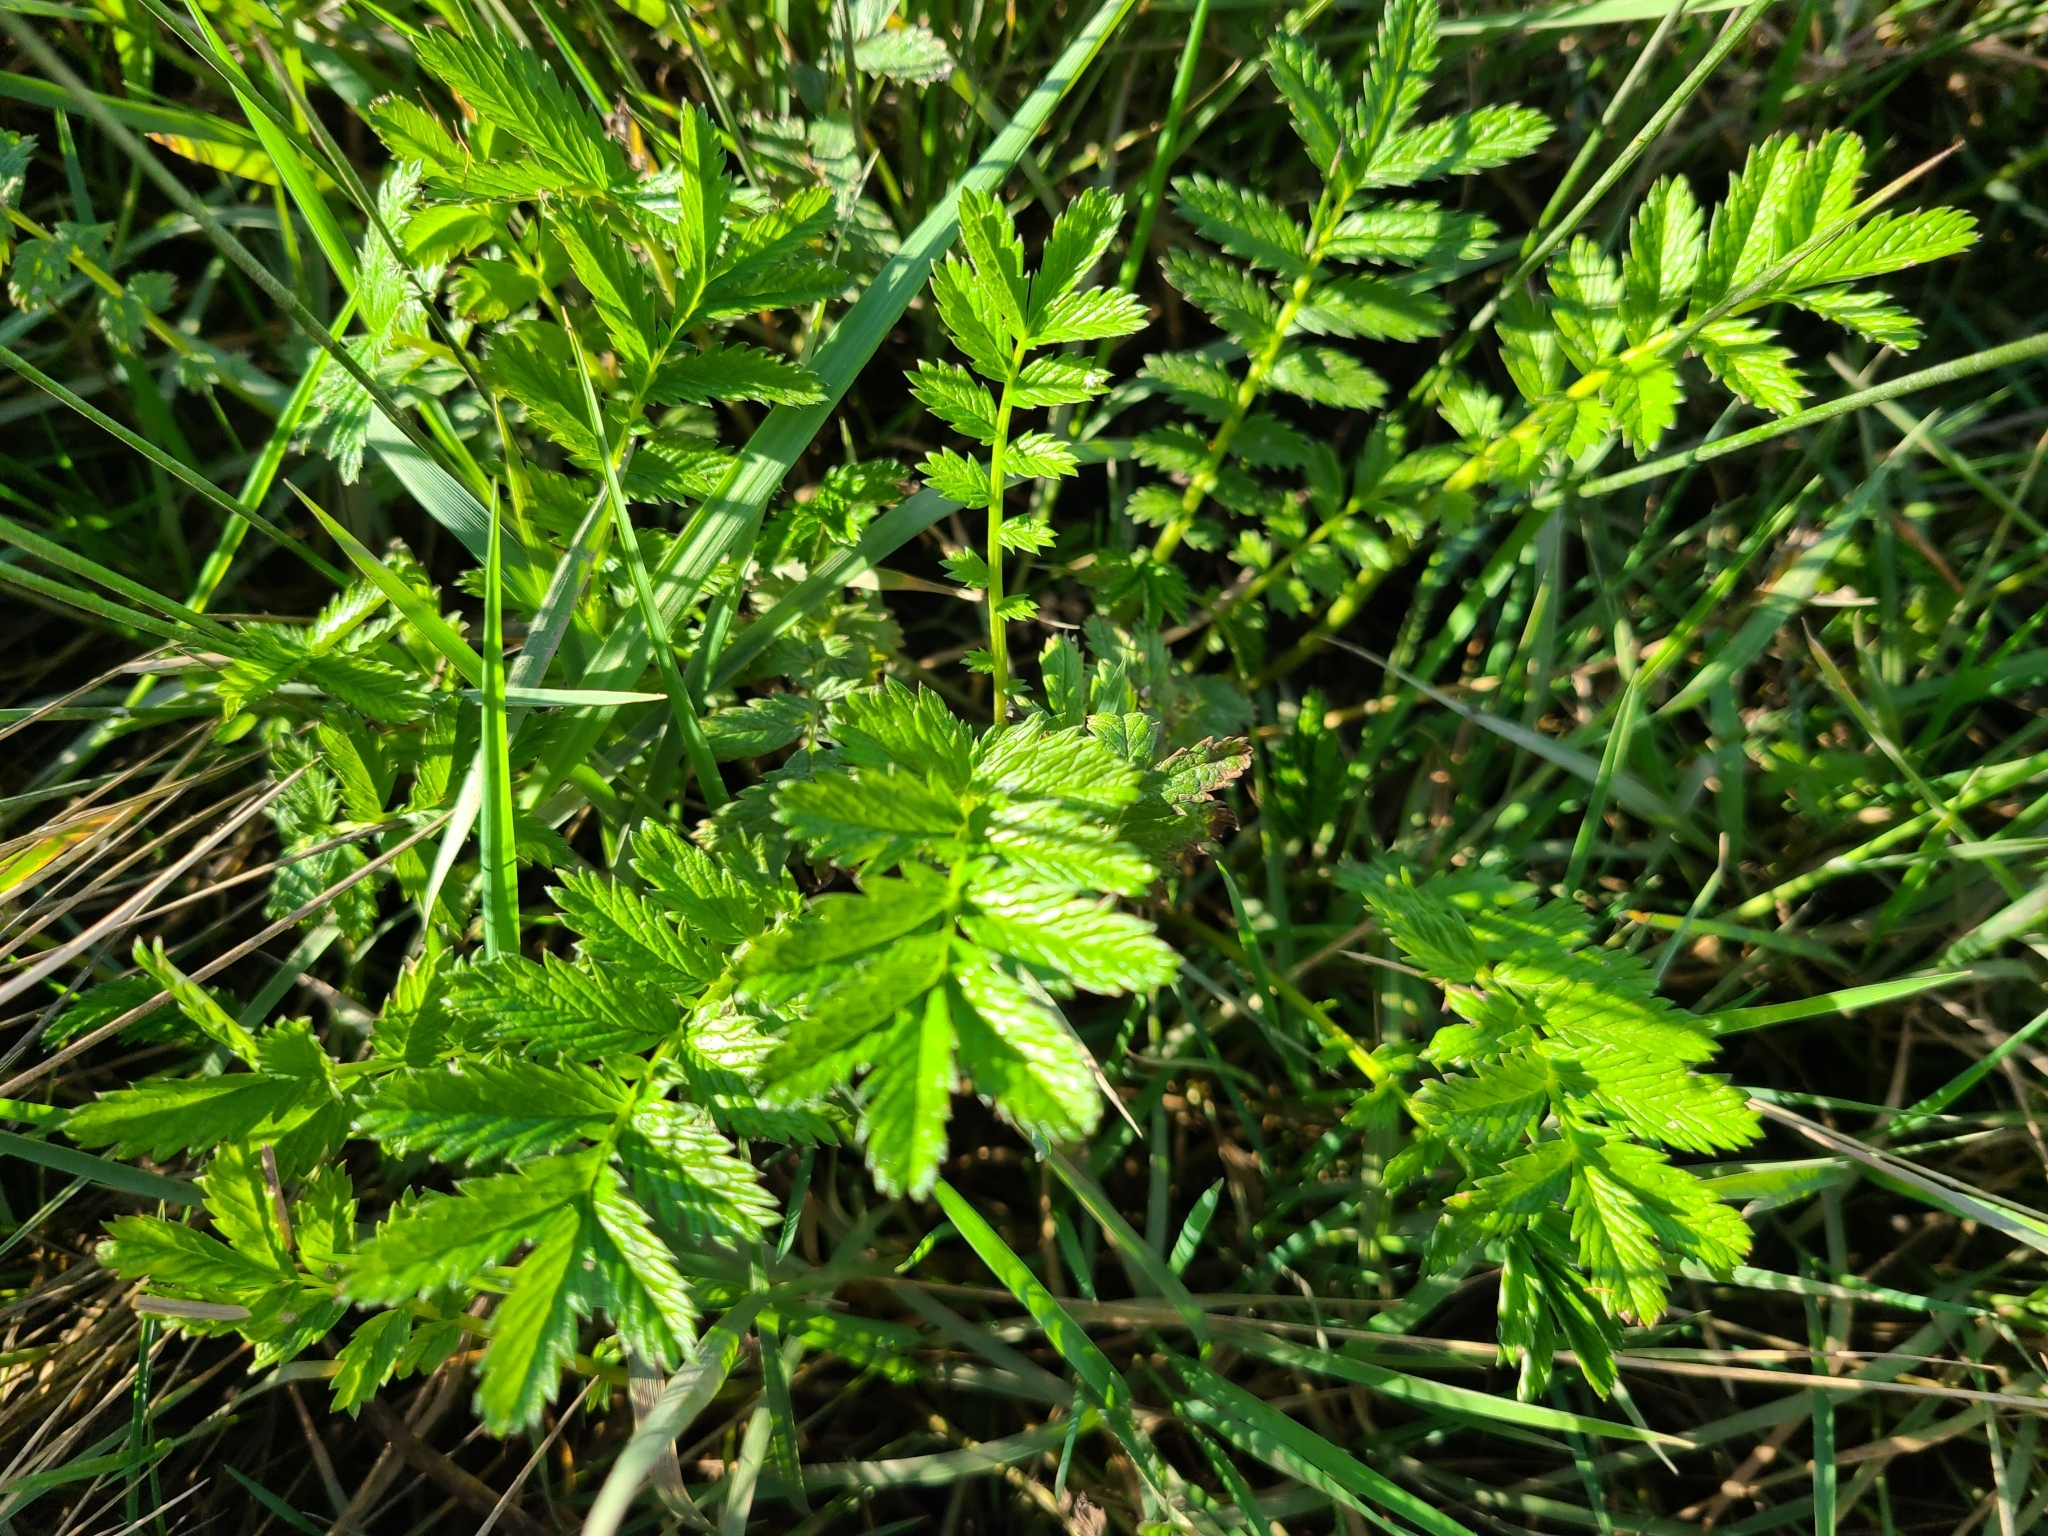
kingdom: Plantae
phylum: Tracheophyta
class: Magnoliopsida
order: Rosales
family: Rosaceae
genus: Argentina
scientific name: Argentina anserina
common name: Common silverweed
